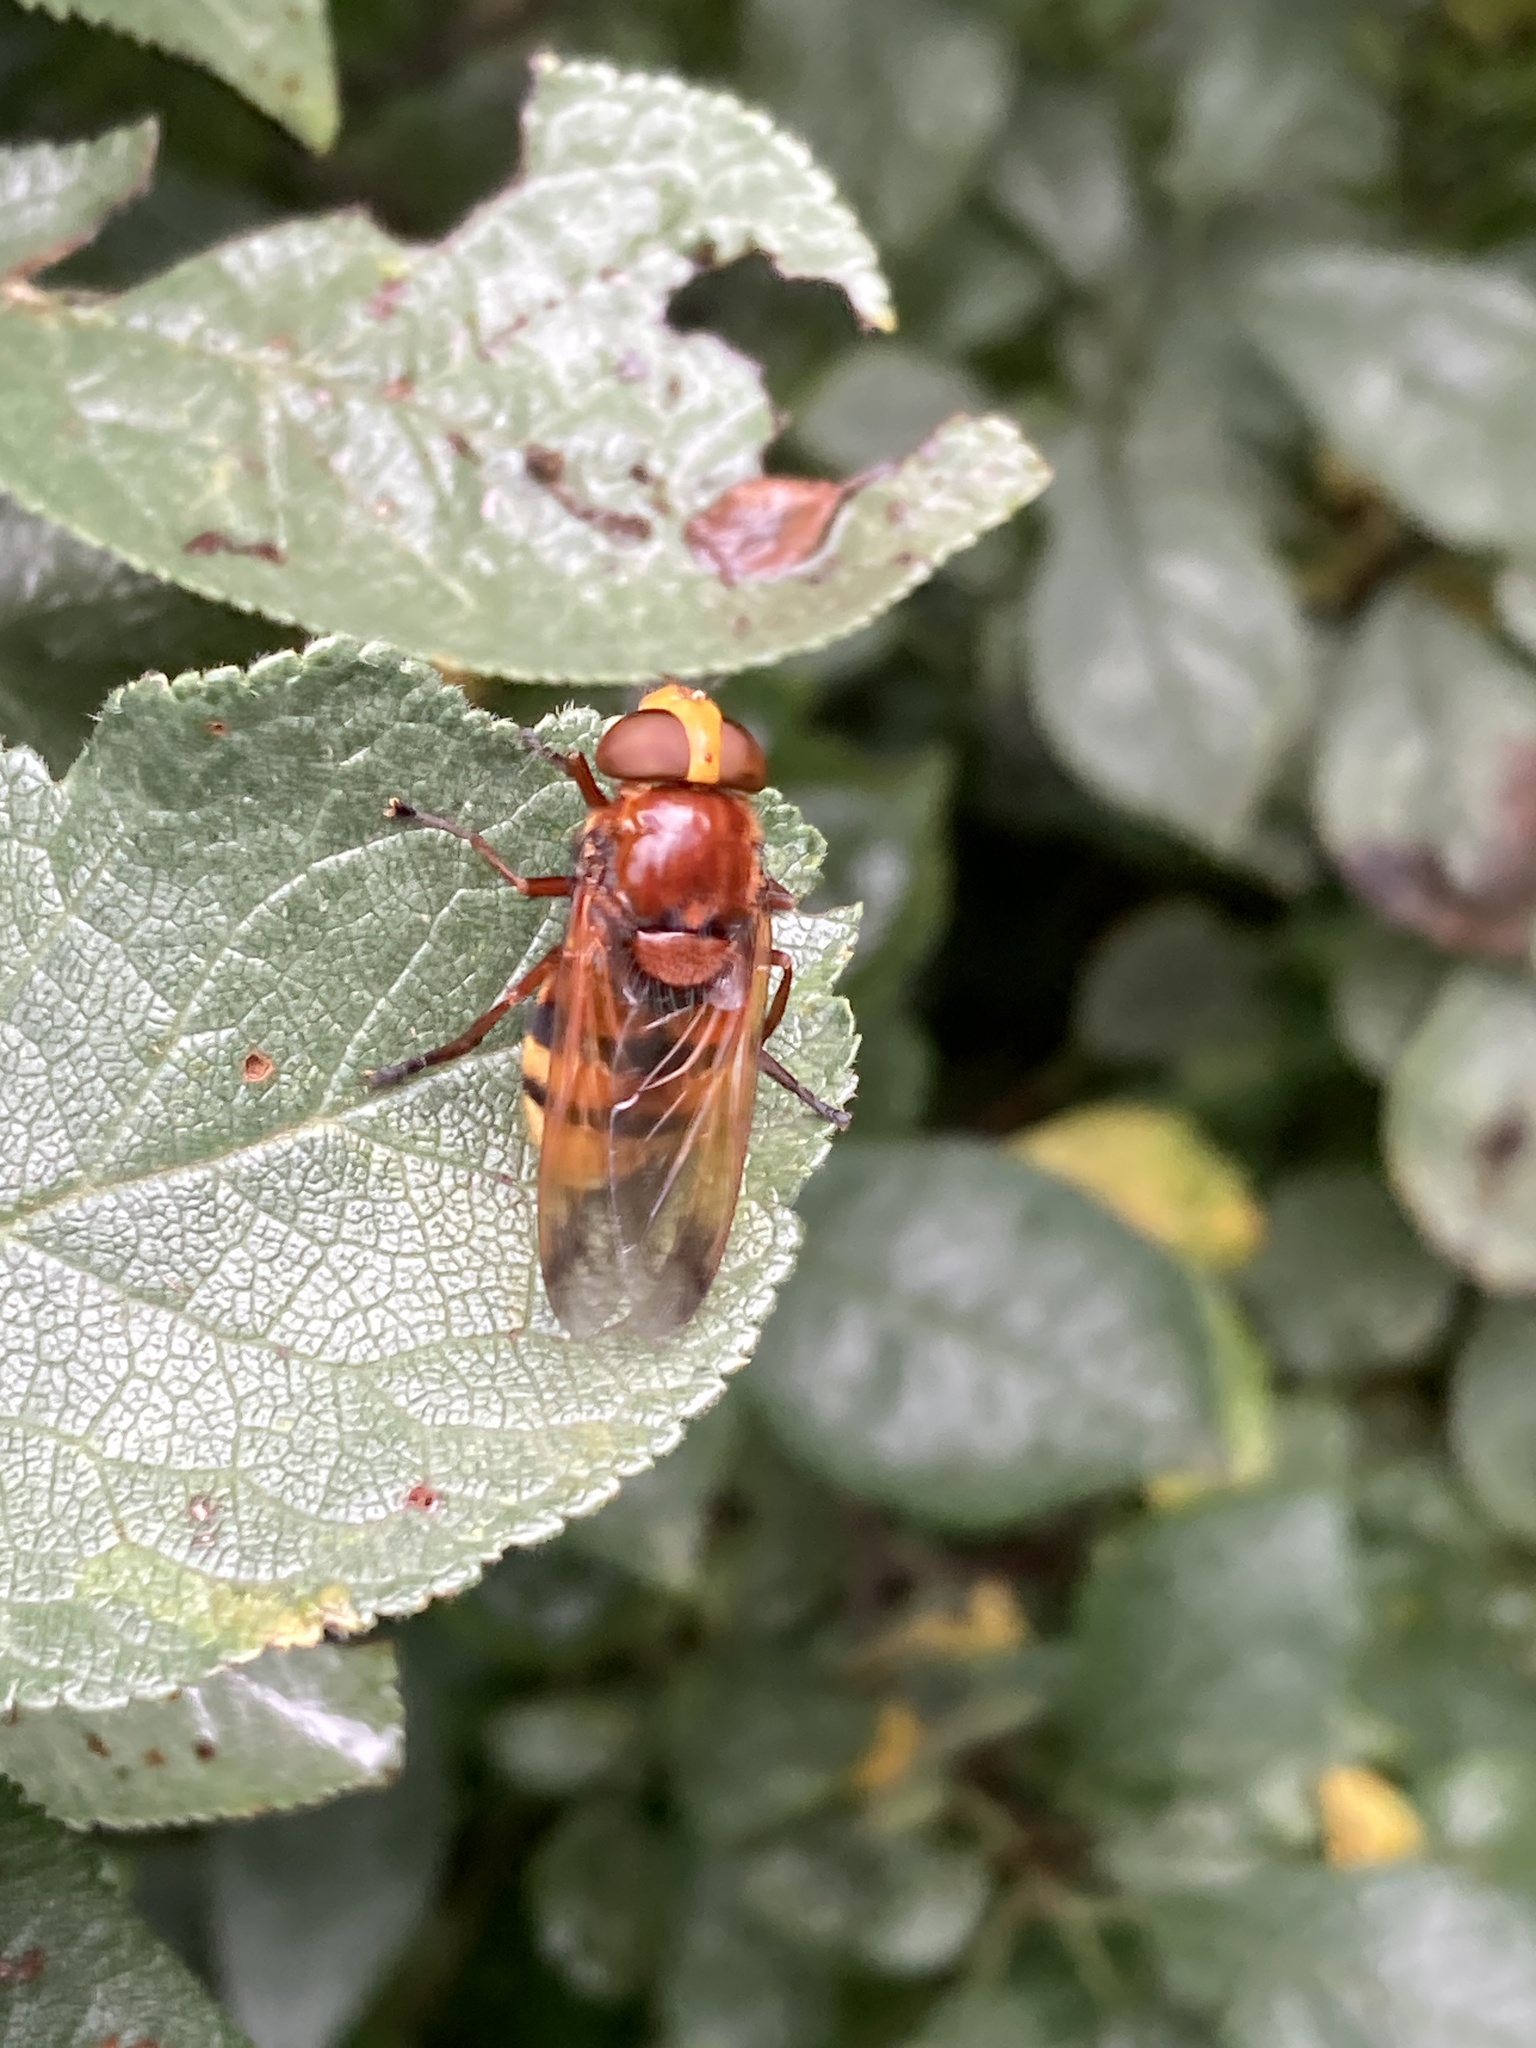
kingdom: Animalia
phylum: Arthropoda
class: Insecta
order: Diptera
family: Syrphidae
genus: Volucella
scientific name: Volucella zonaria
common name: Hornet hoverfly
